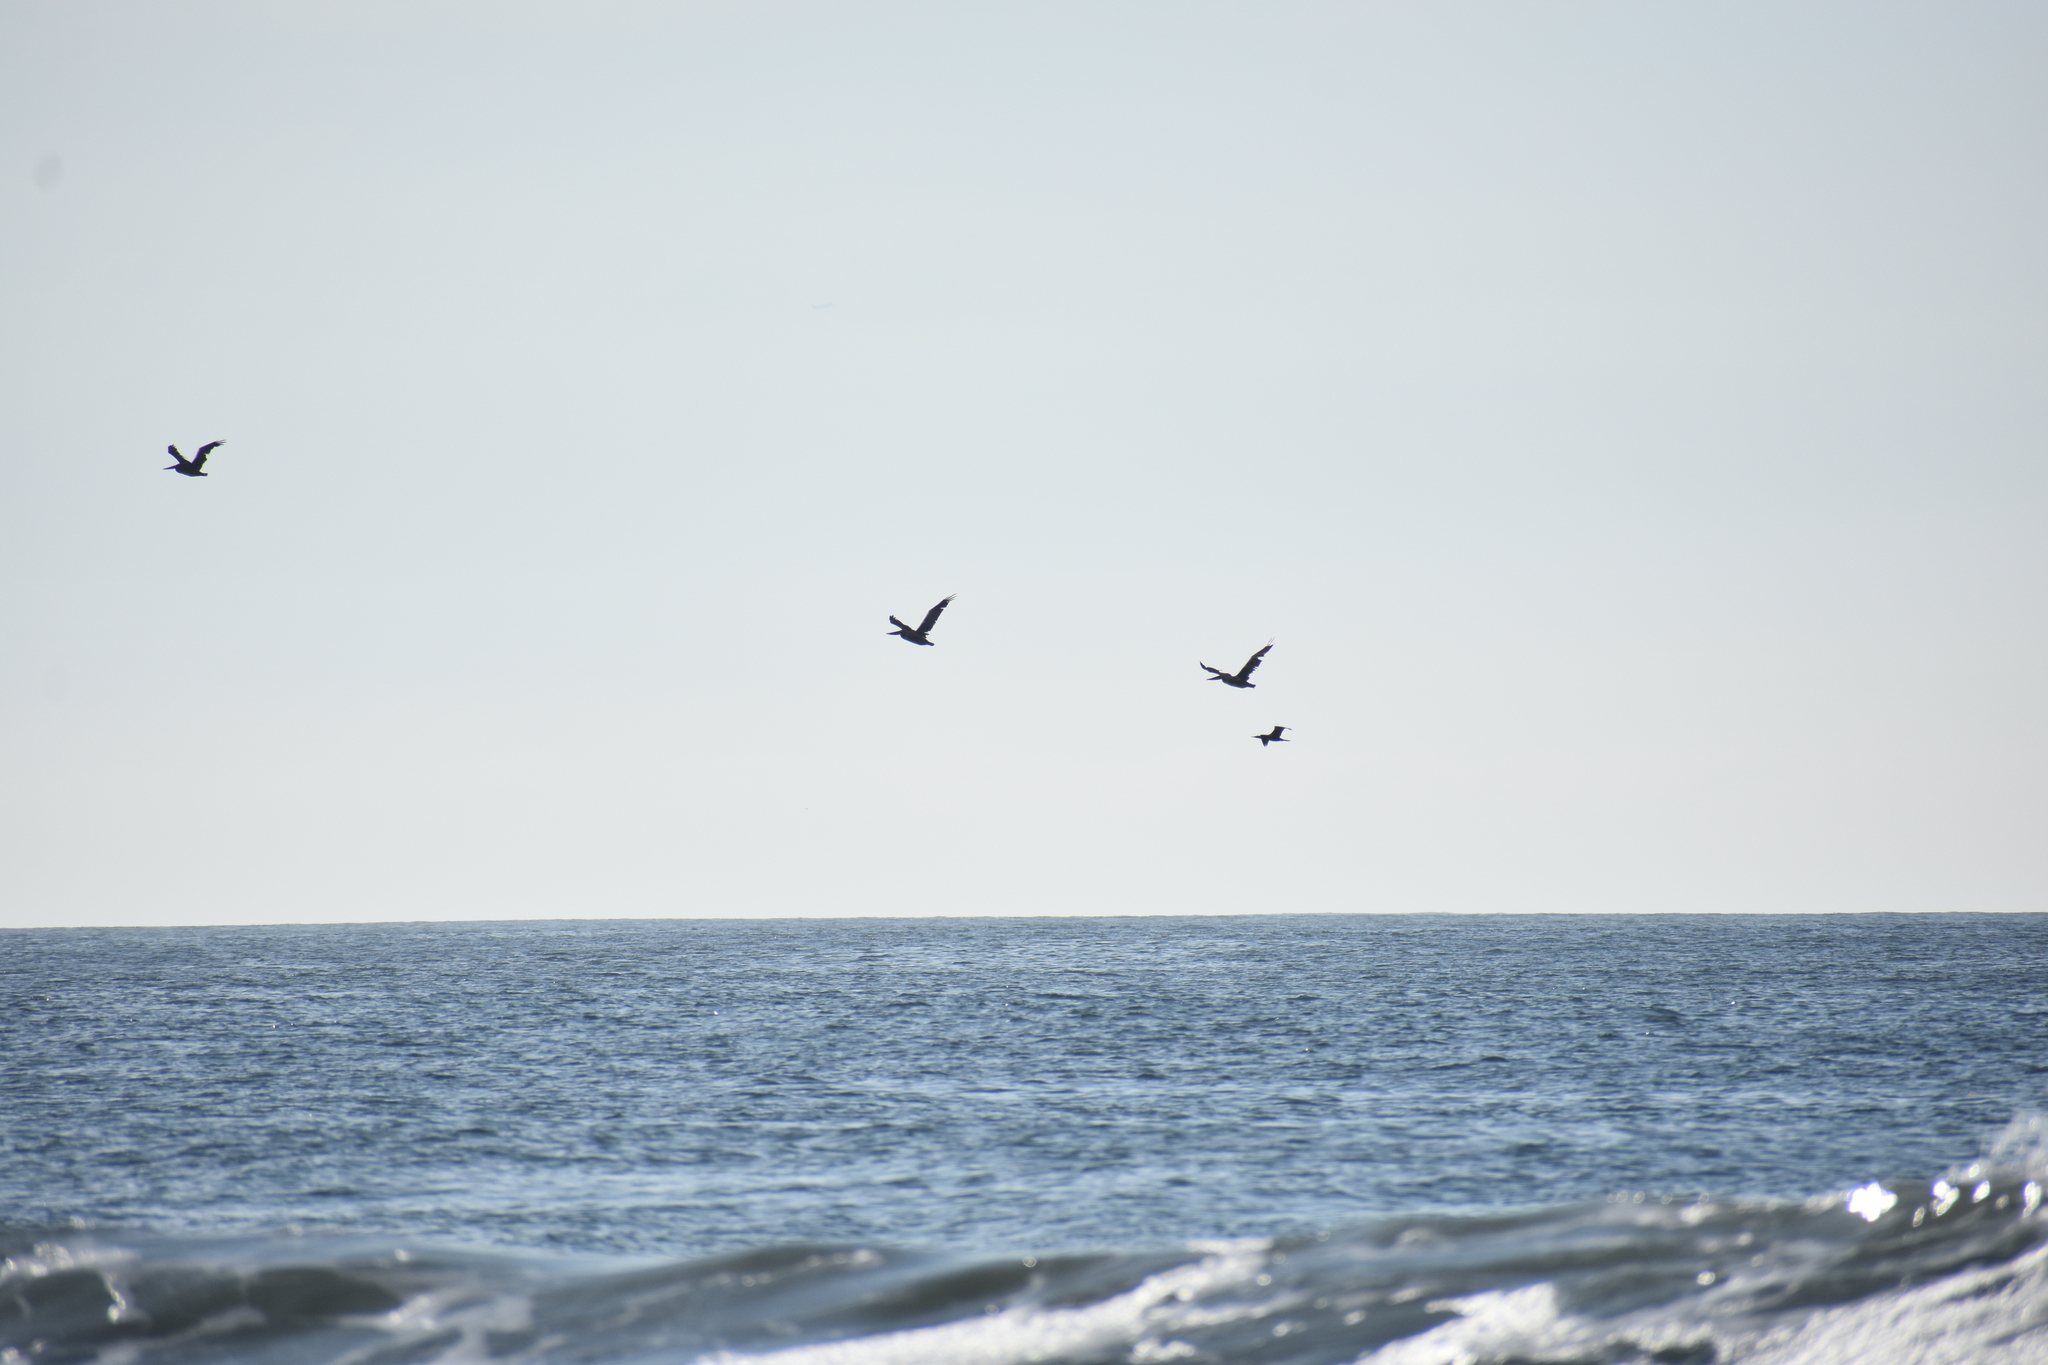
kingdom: Animalia
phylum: Chordata
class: Aves
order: Pelecaniformes
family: Pelecanidae
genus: Pelecanus
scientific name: Pelecanus occidentalis
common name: Brown pelican
